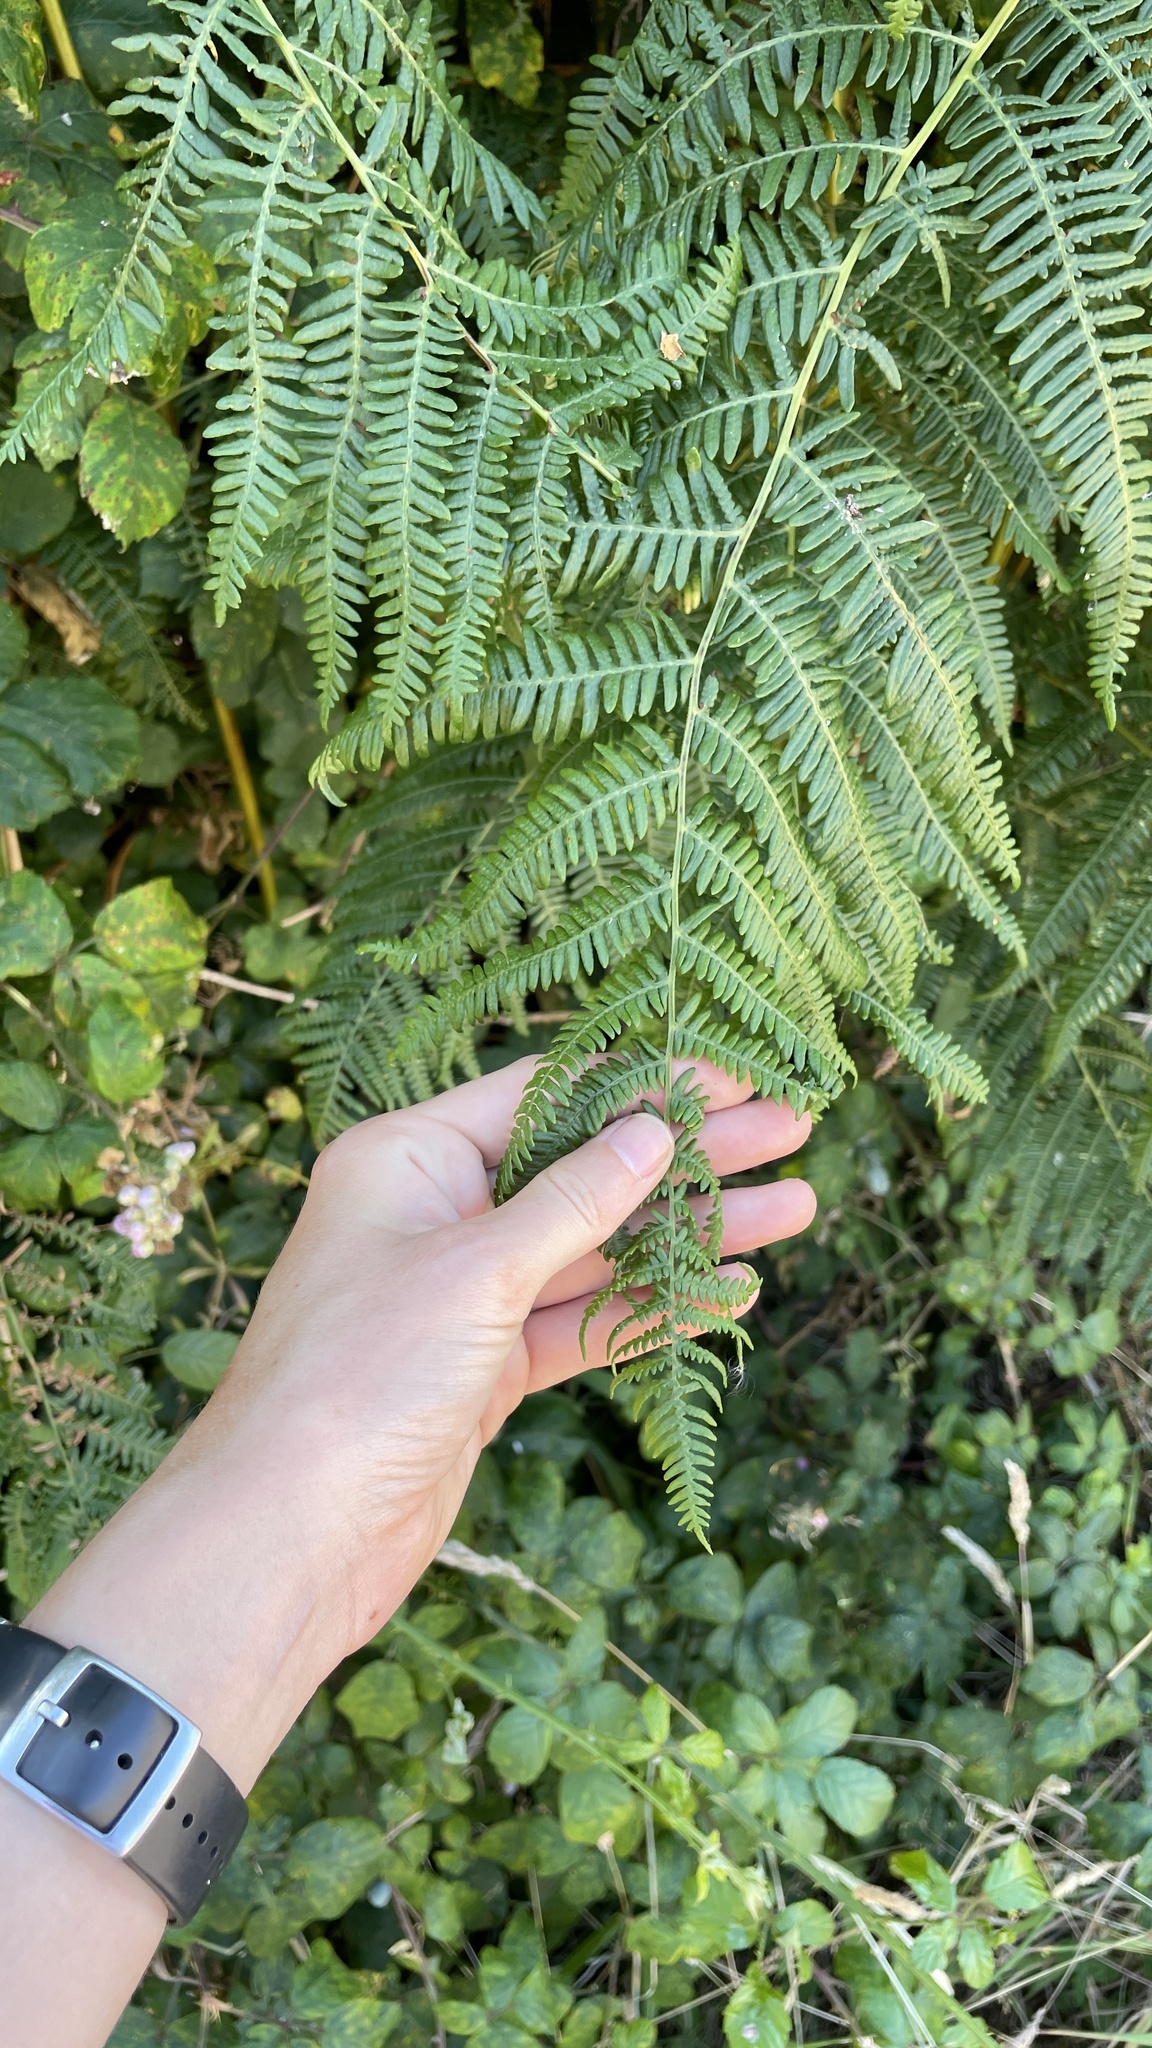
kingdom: Plantae
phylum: Tracheophyta
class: Polypodiopsida
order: Polypodiales
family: Dennstaedtiaceae
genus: Pteridium
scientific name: Pteridium aquilinum
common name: Bracken
